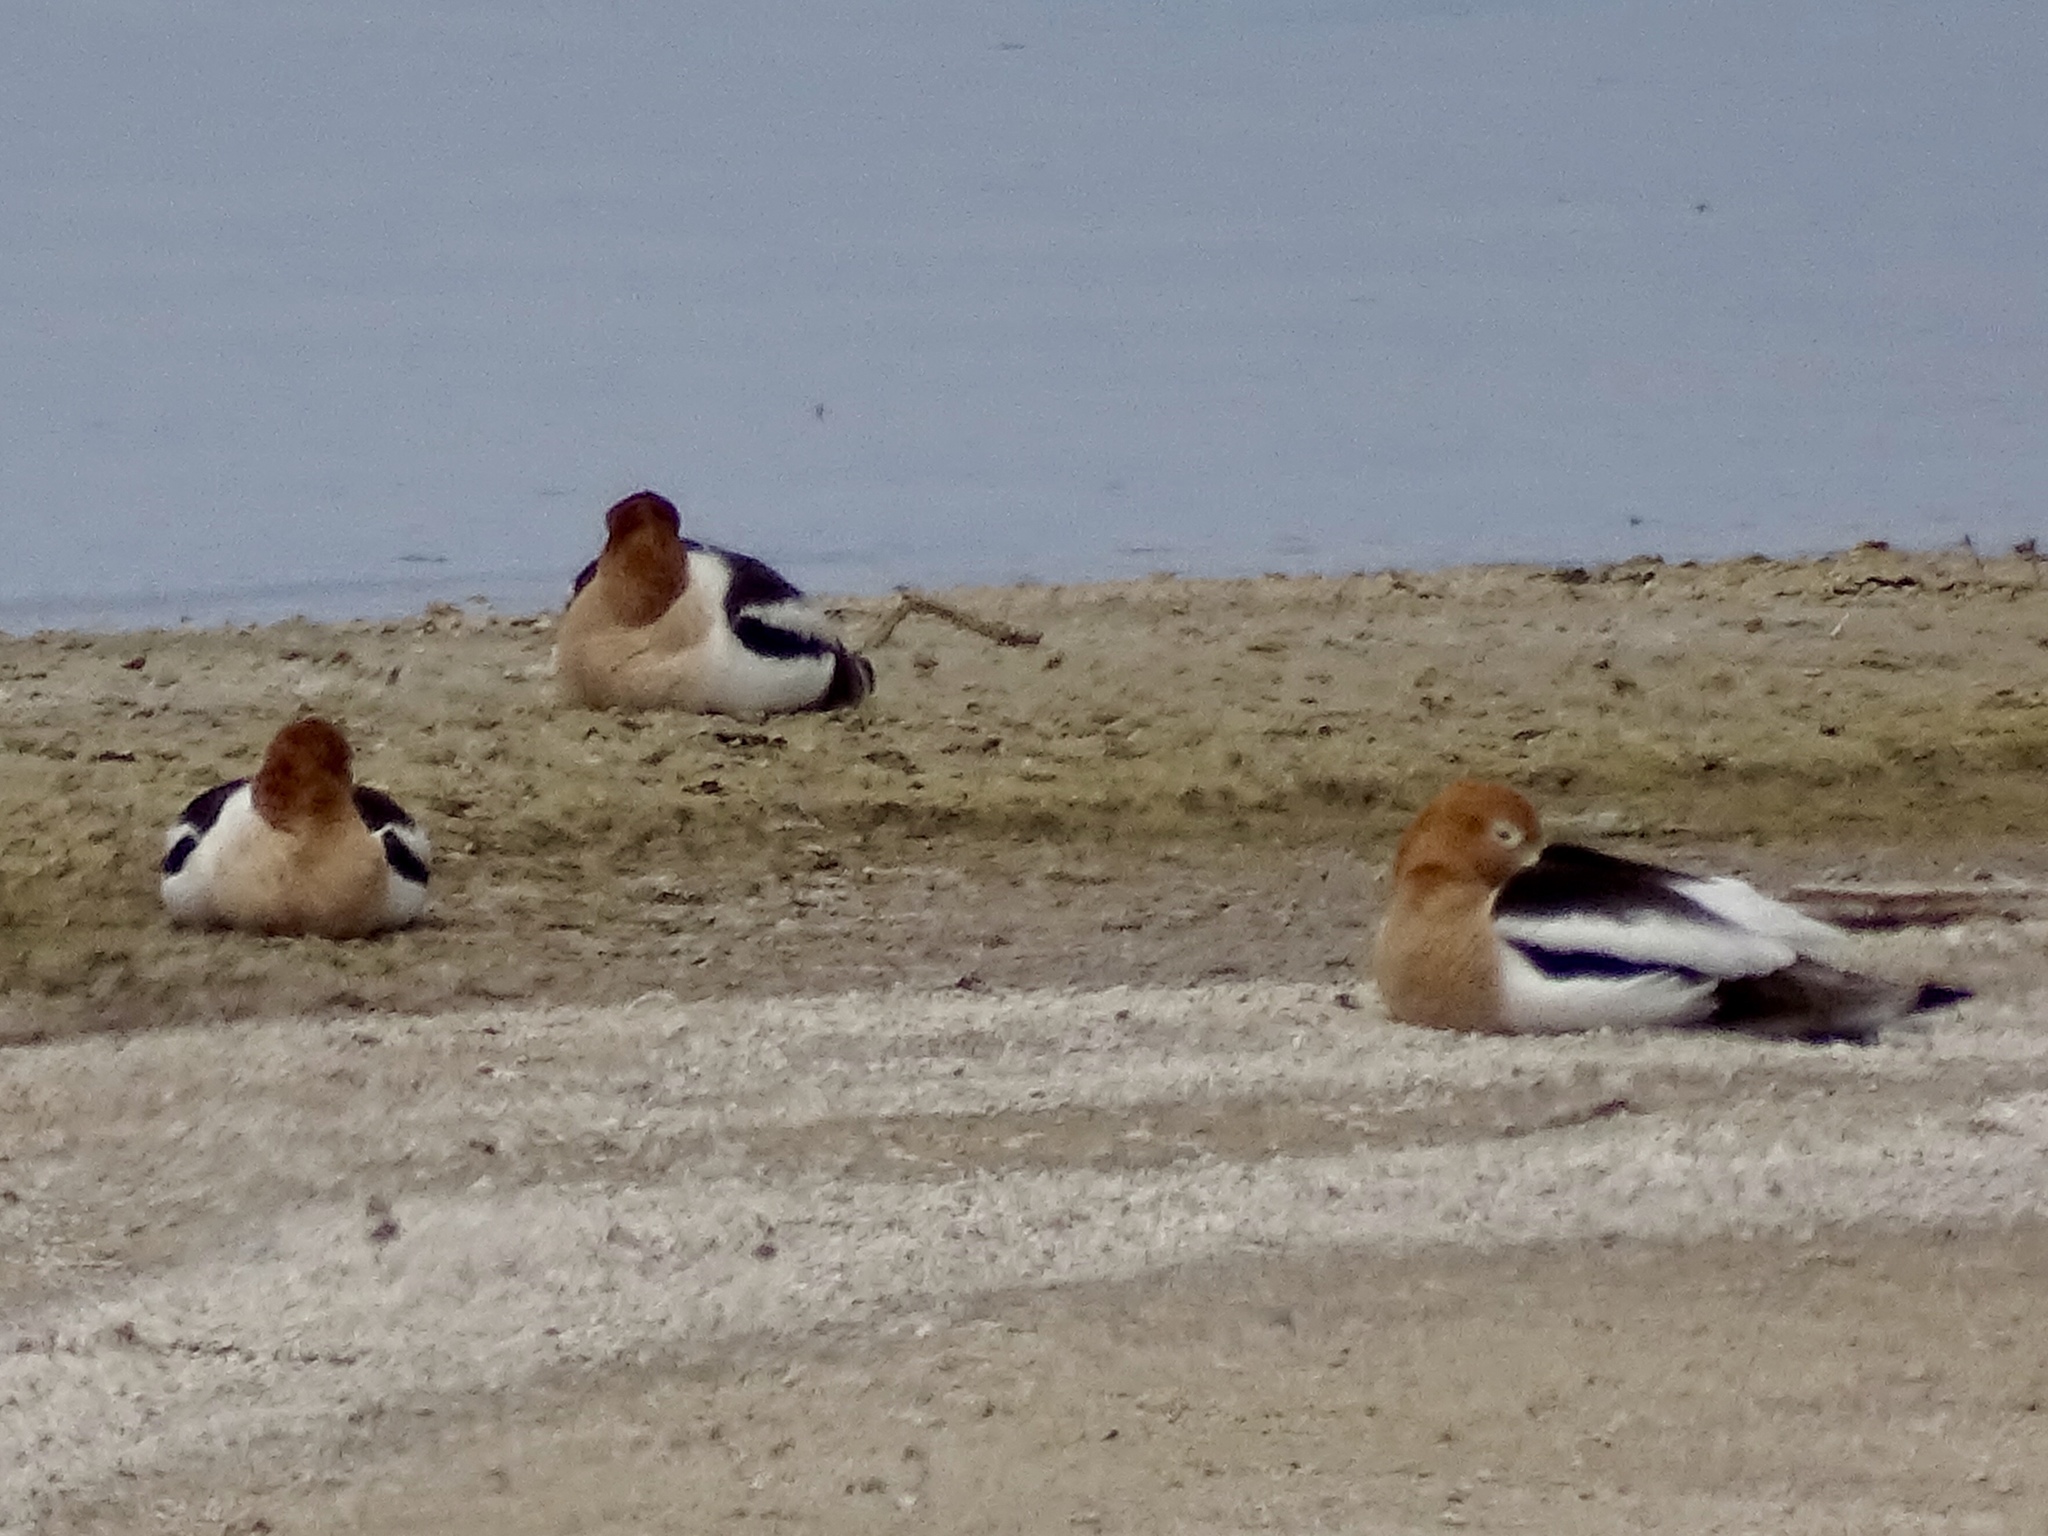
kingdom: Animalia
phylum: Chordata
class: Aves
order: Charadriiformes
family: Recurvirostridae
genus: Recurvirostra
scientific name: Recurvirostra americana
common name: American avocet
